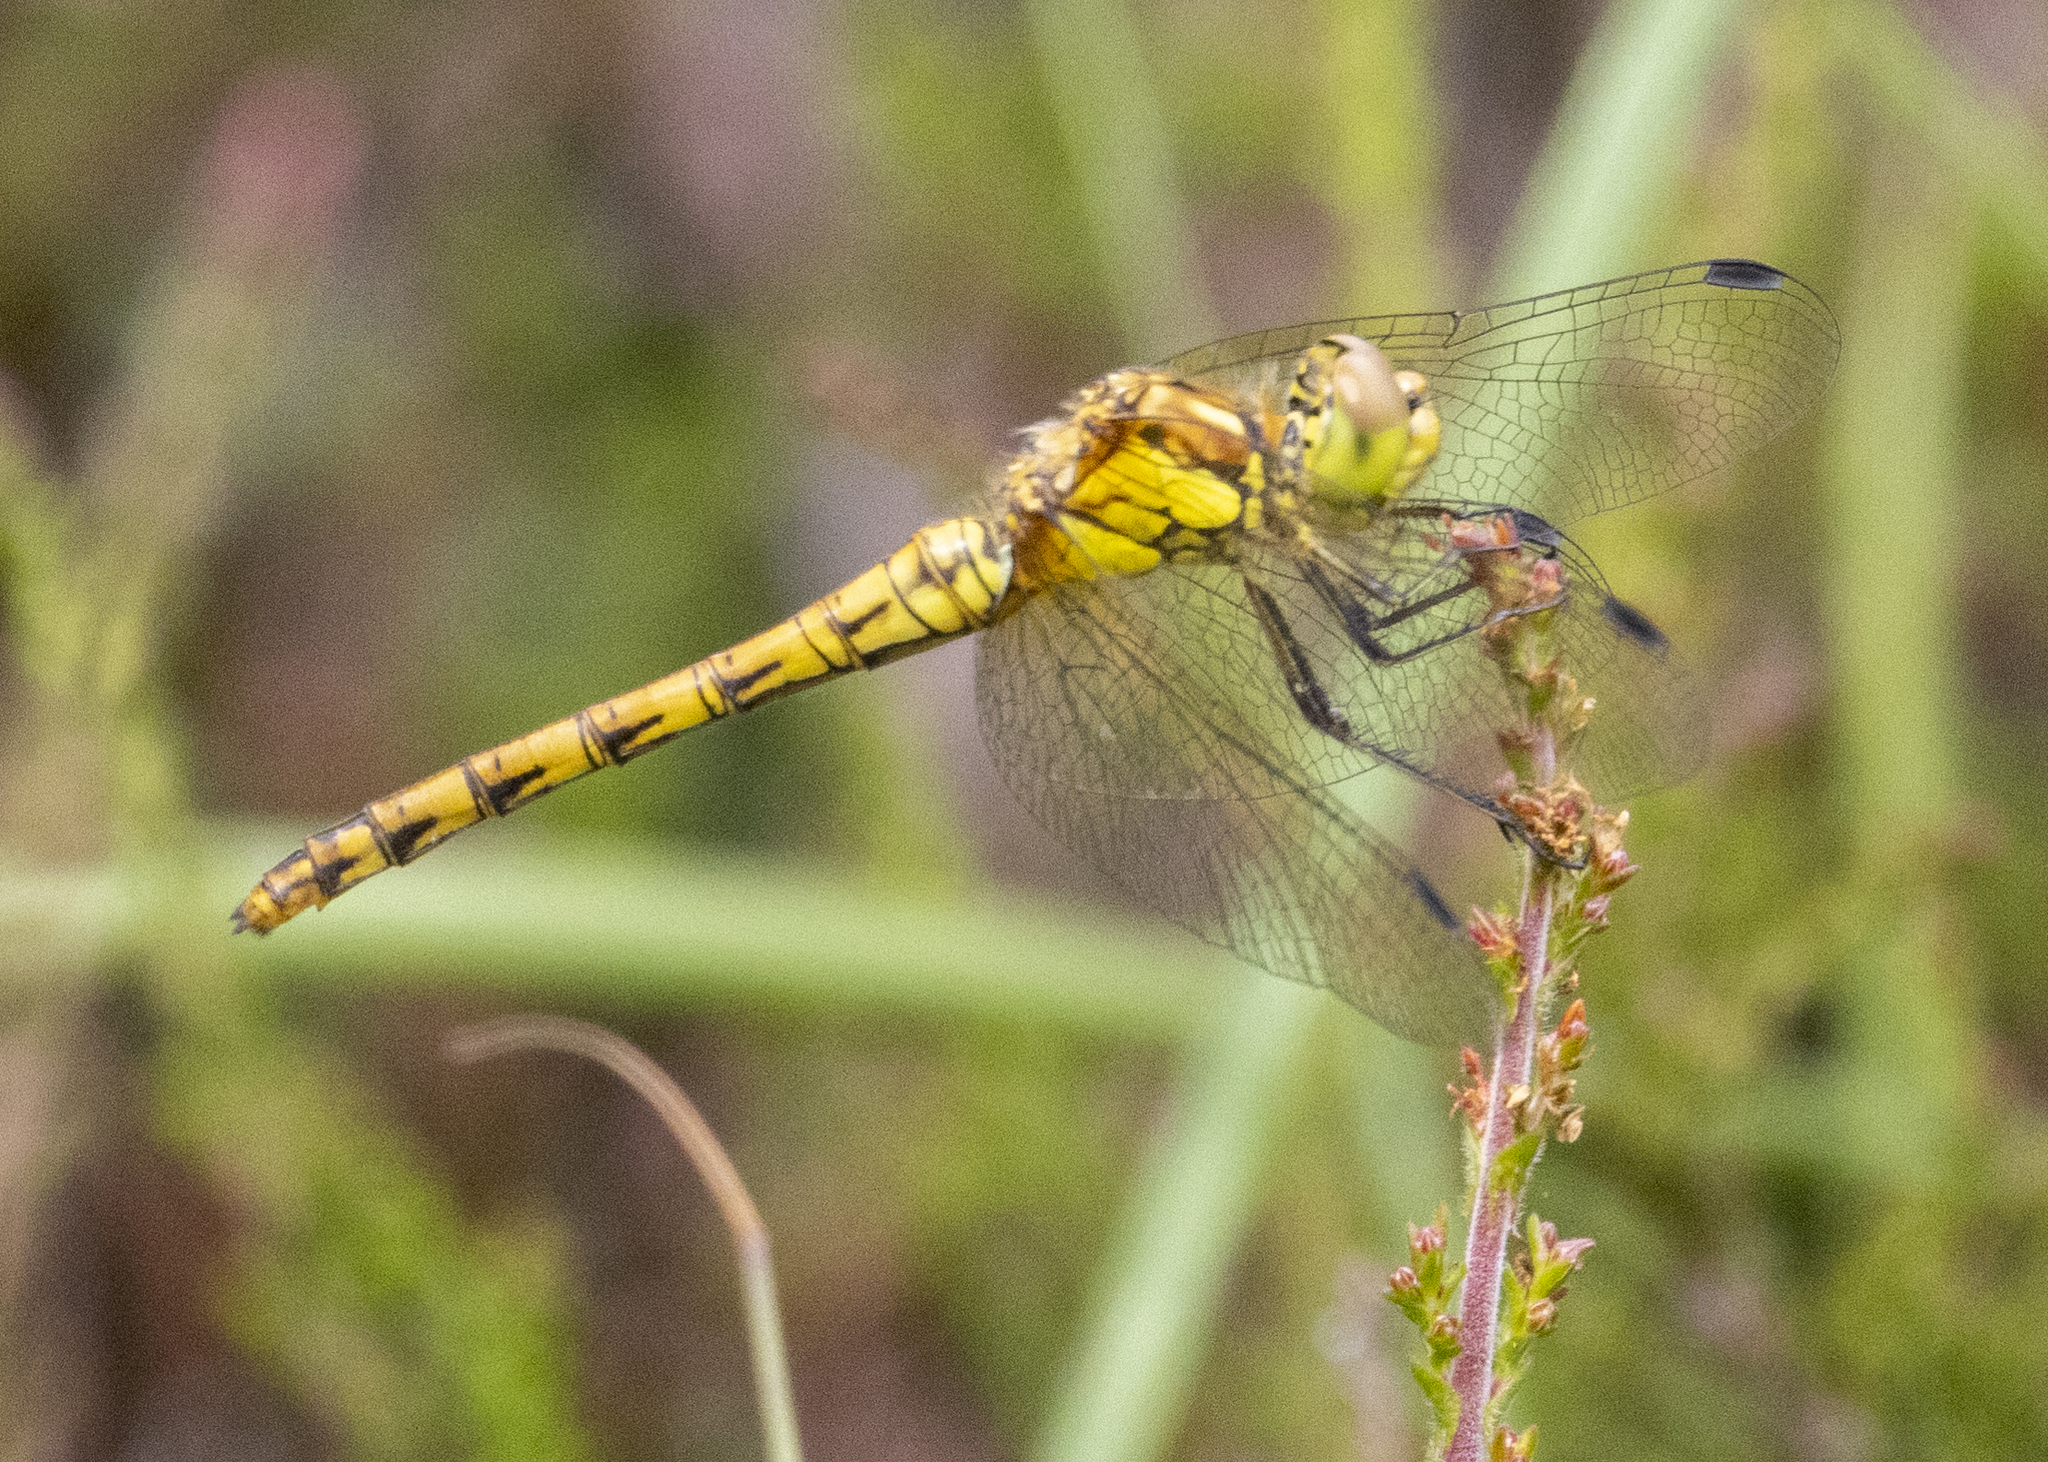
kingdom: Animalia
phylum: Arthropoda
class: Insecta
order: Odonata
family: Libellulidae
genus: Sympetrum
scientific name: Sympetrum striolatum
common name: Common darter
